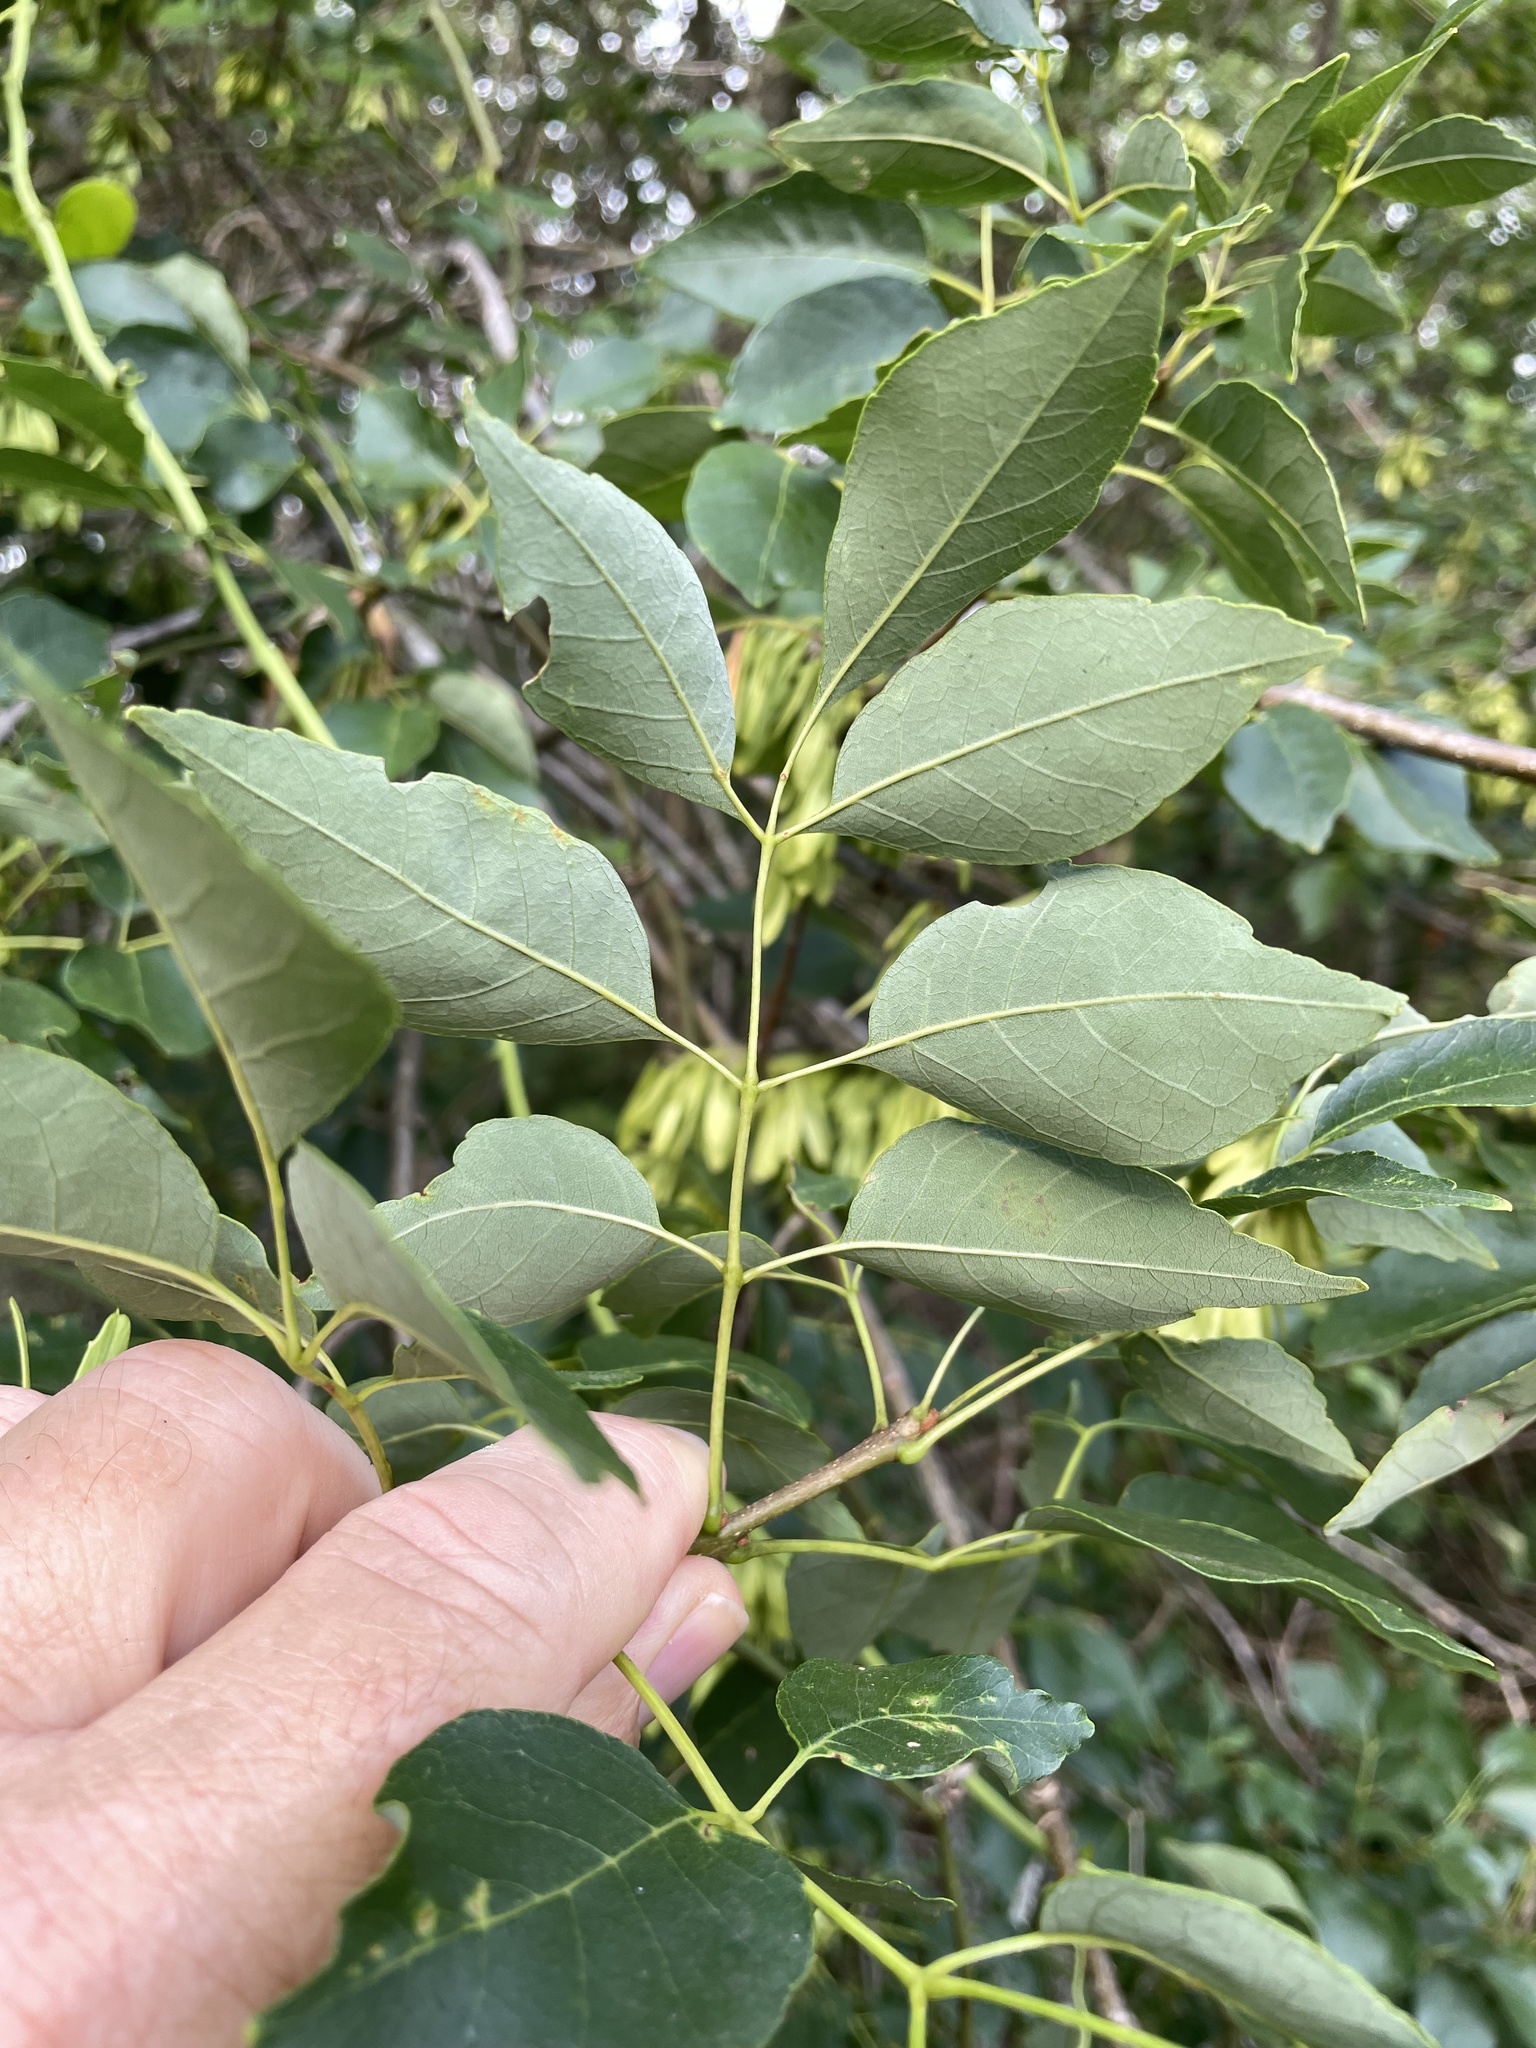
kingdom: Plantae
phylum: Tracheophyta
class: Magnoliopsida
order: Lamiales
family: Oleaceae
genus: Fraxinus
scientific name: Fraxinus albicans
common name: Texas ash
